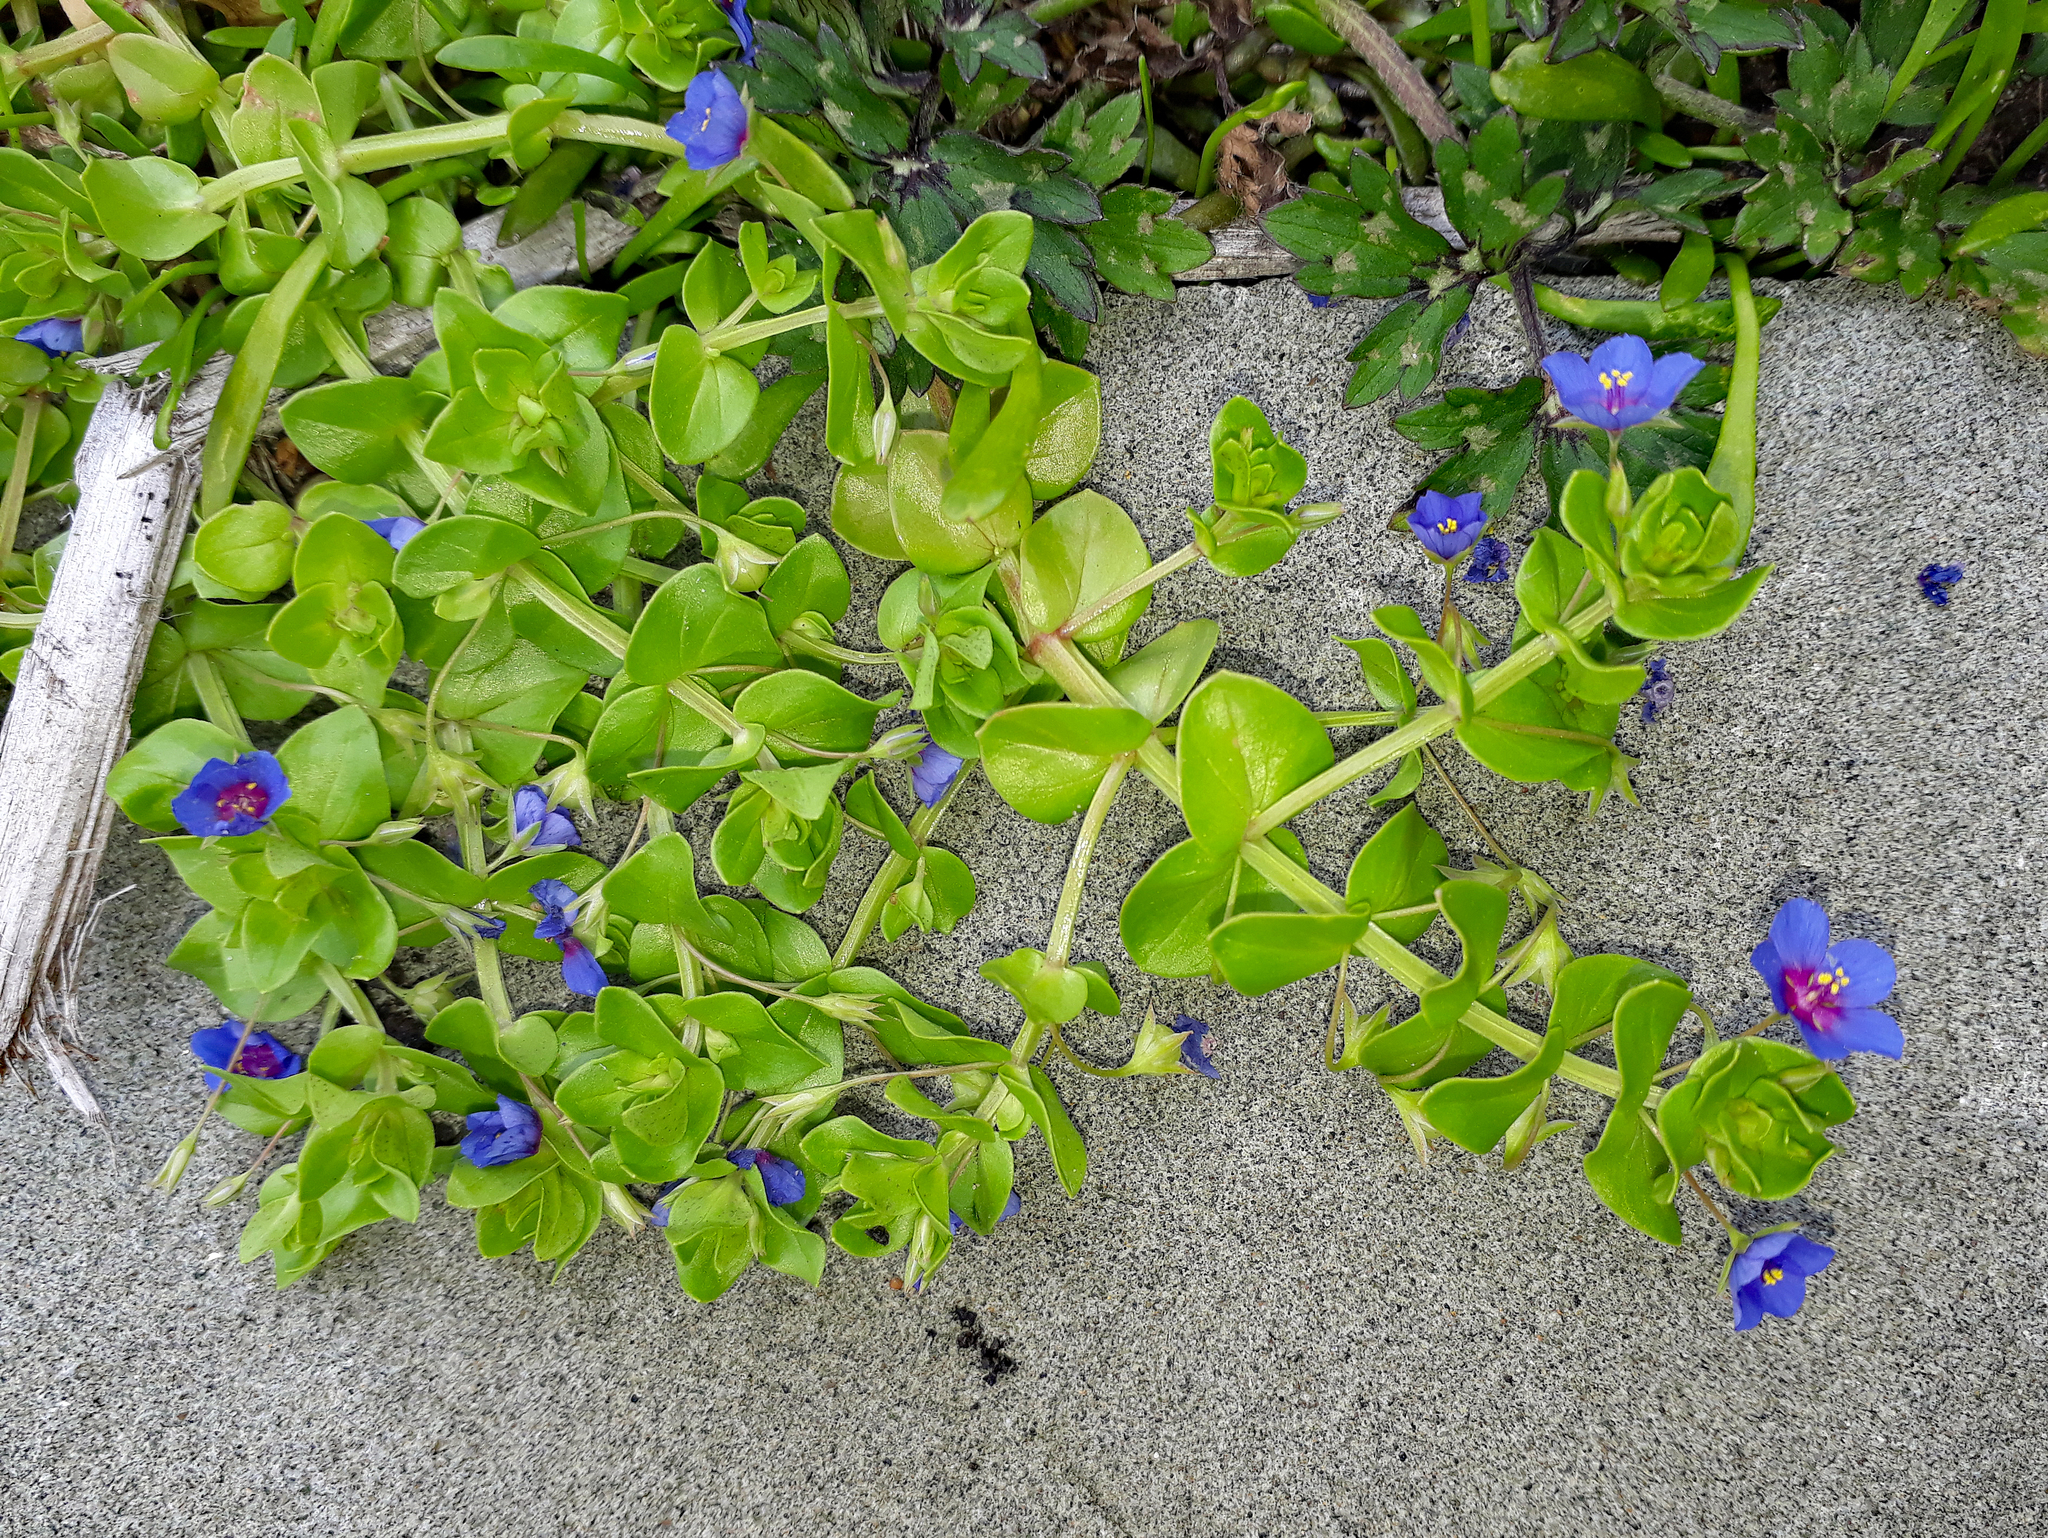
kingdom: Plantae
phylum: Tracheophyta
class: Magnoliopsida
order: Ericales
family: Primulaceae
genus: Lysimachia
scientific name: Lysimachia arvensis
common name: Scarlet pimpernel
